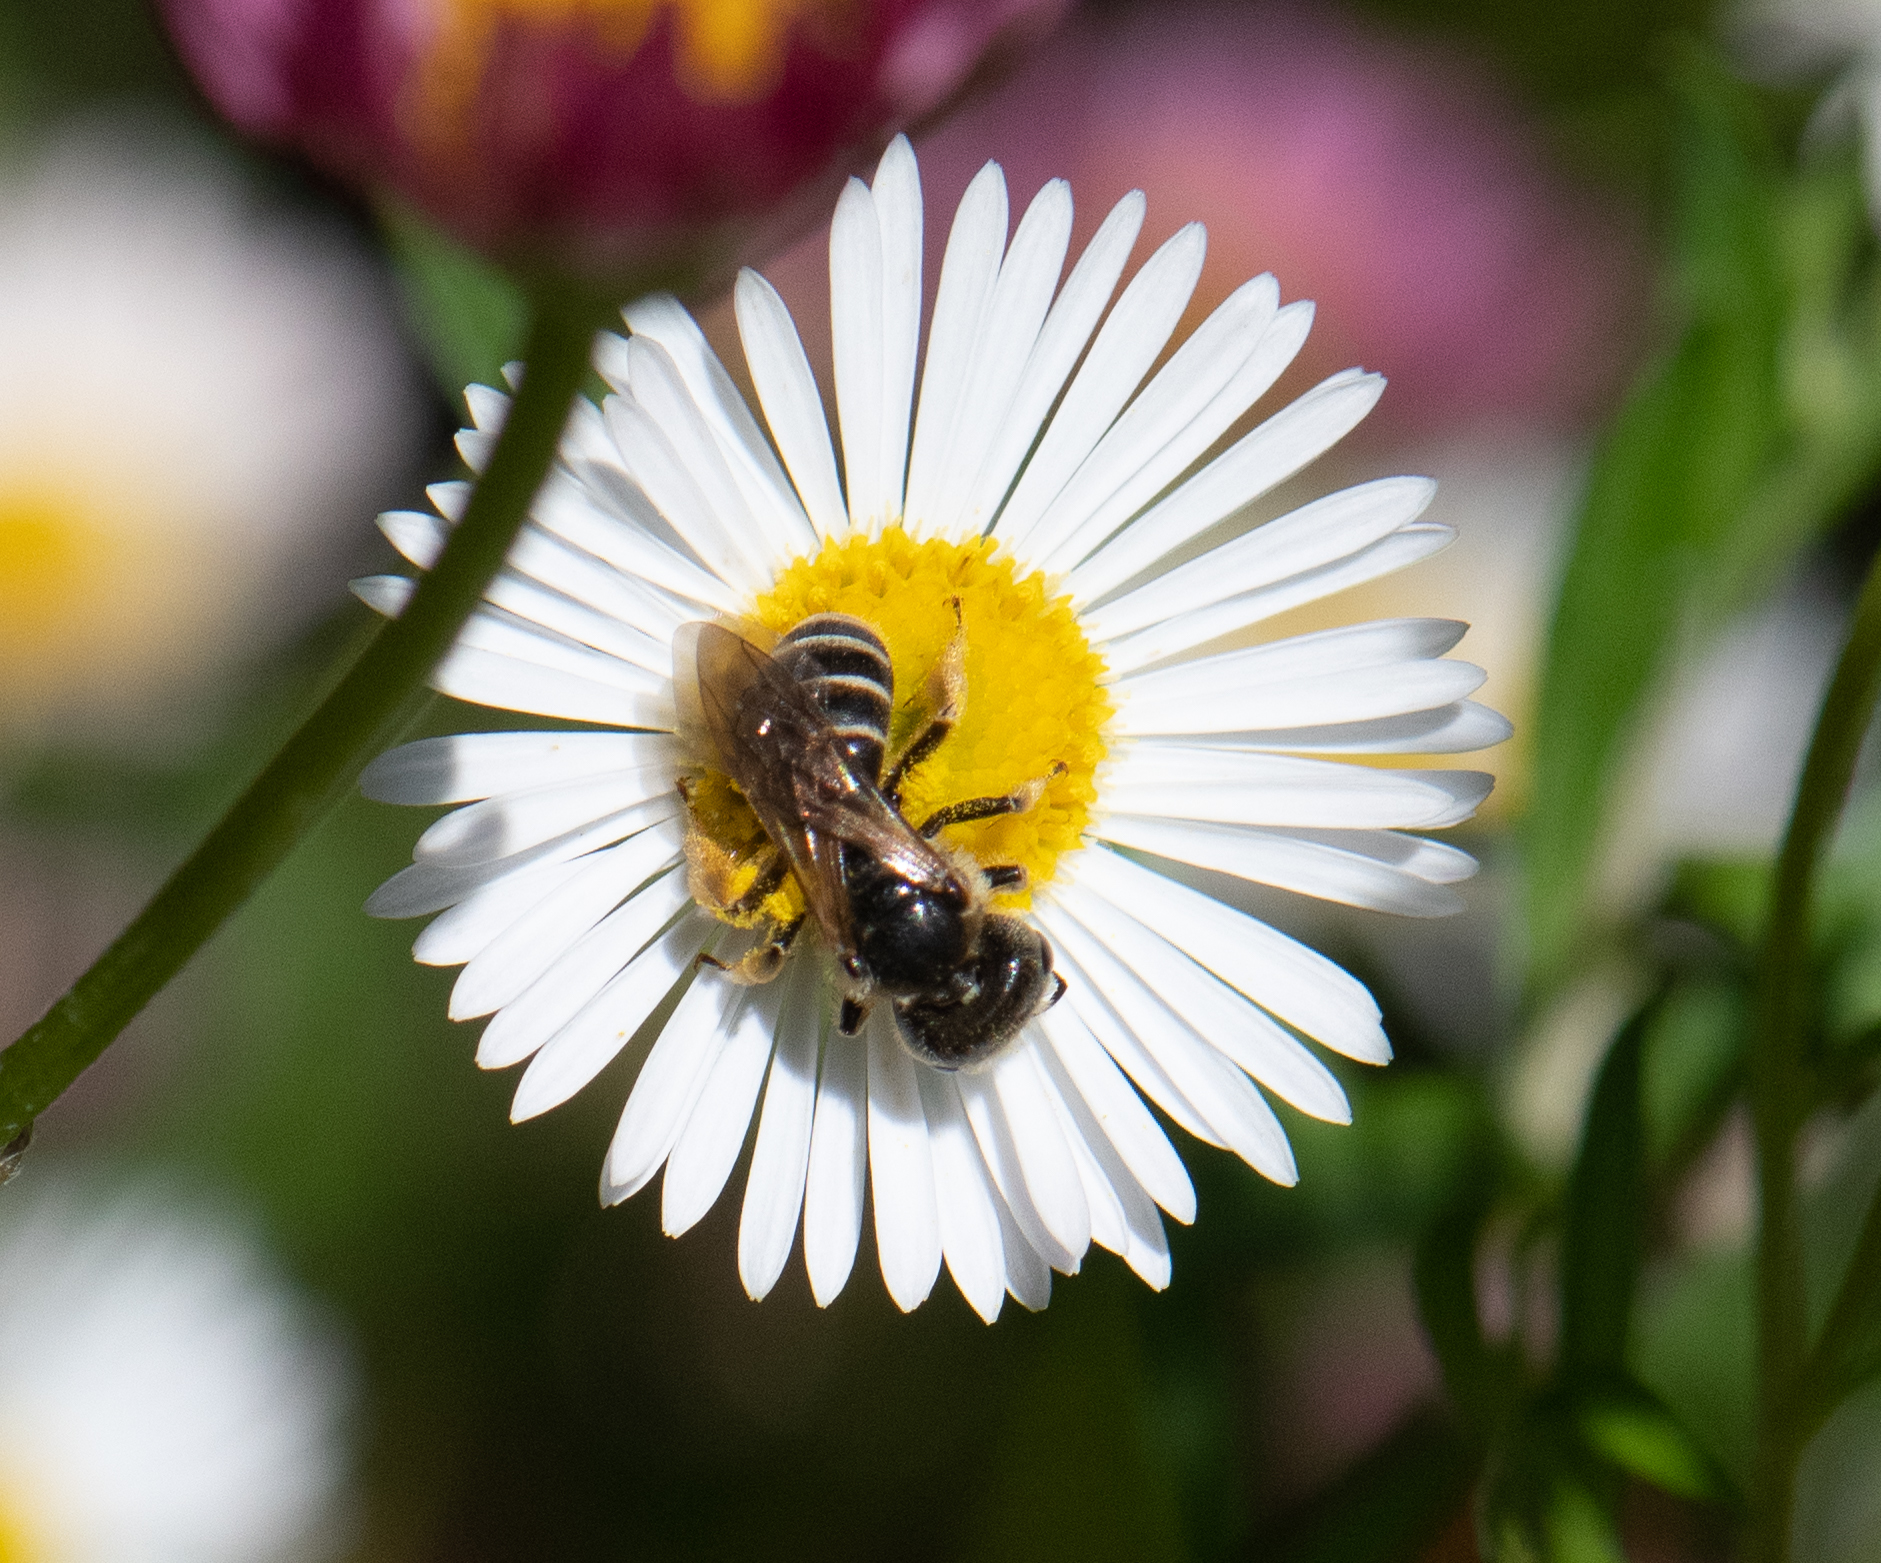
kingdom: Animalia
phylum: Arthropoda
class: Insecta
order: Hymenoptera
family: Halictidae
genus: Halictus
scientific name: Halictus ligatus
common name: Ligated furrow bee
